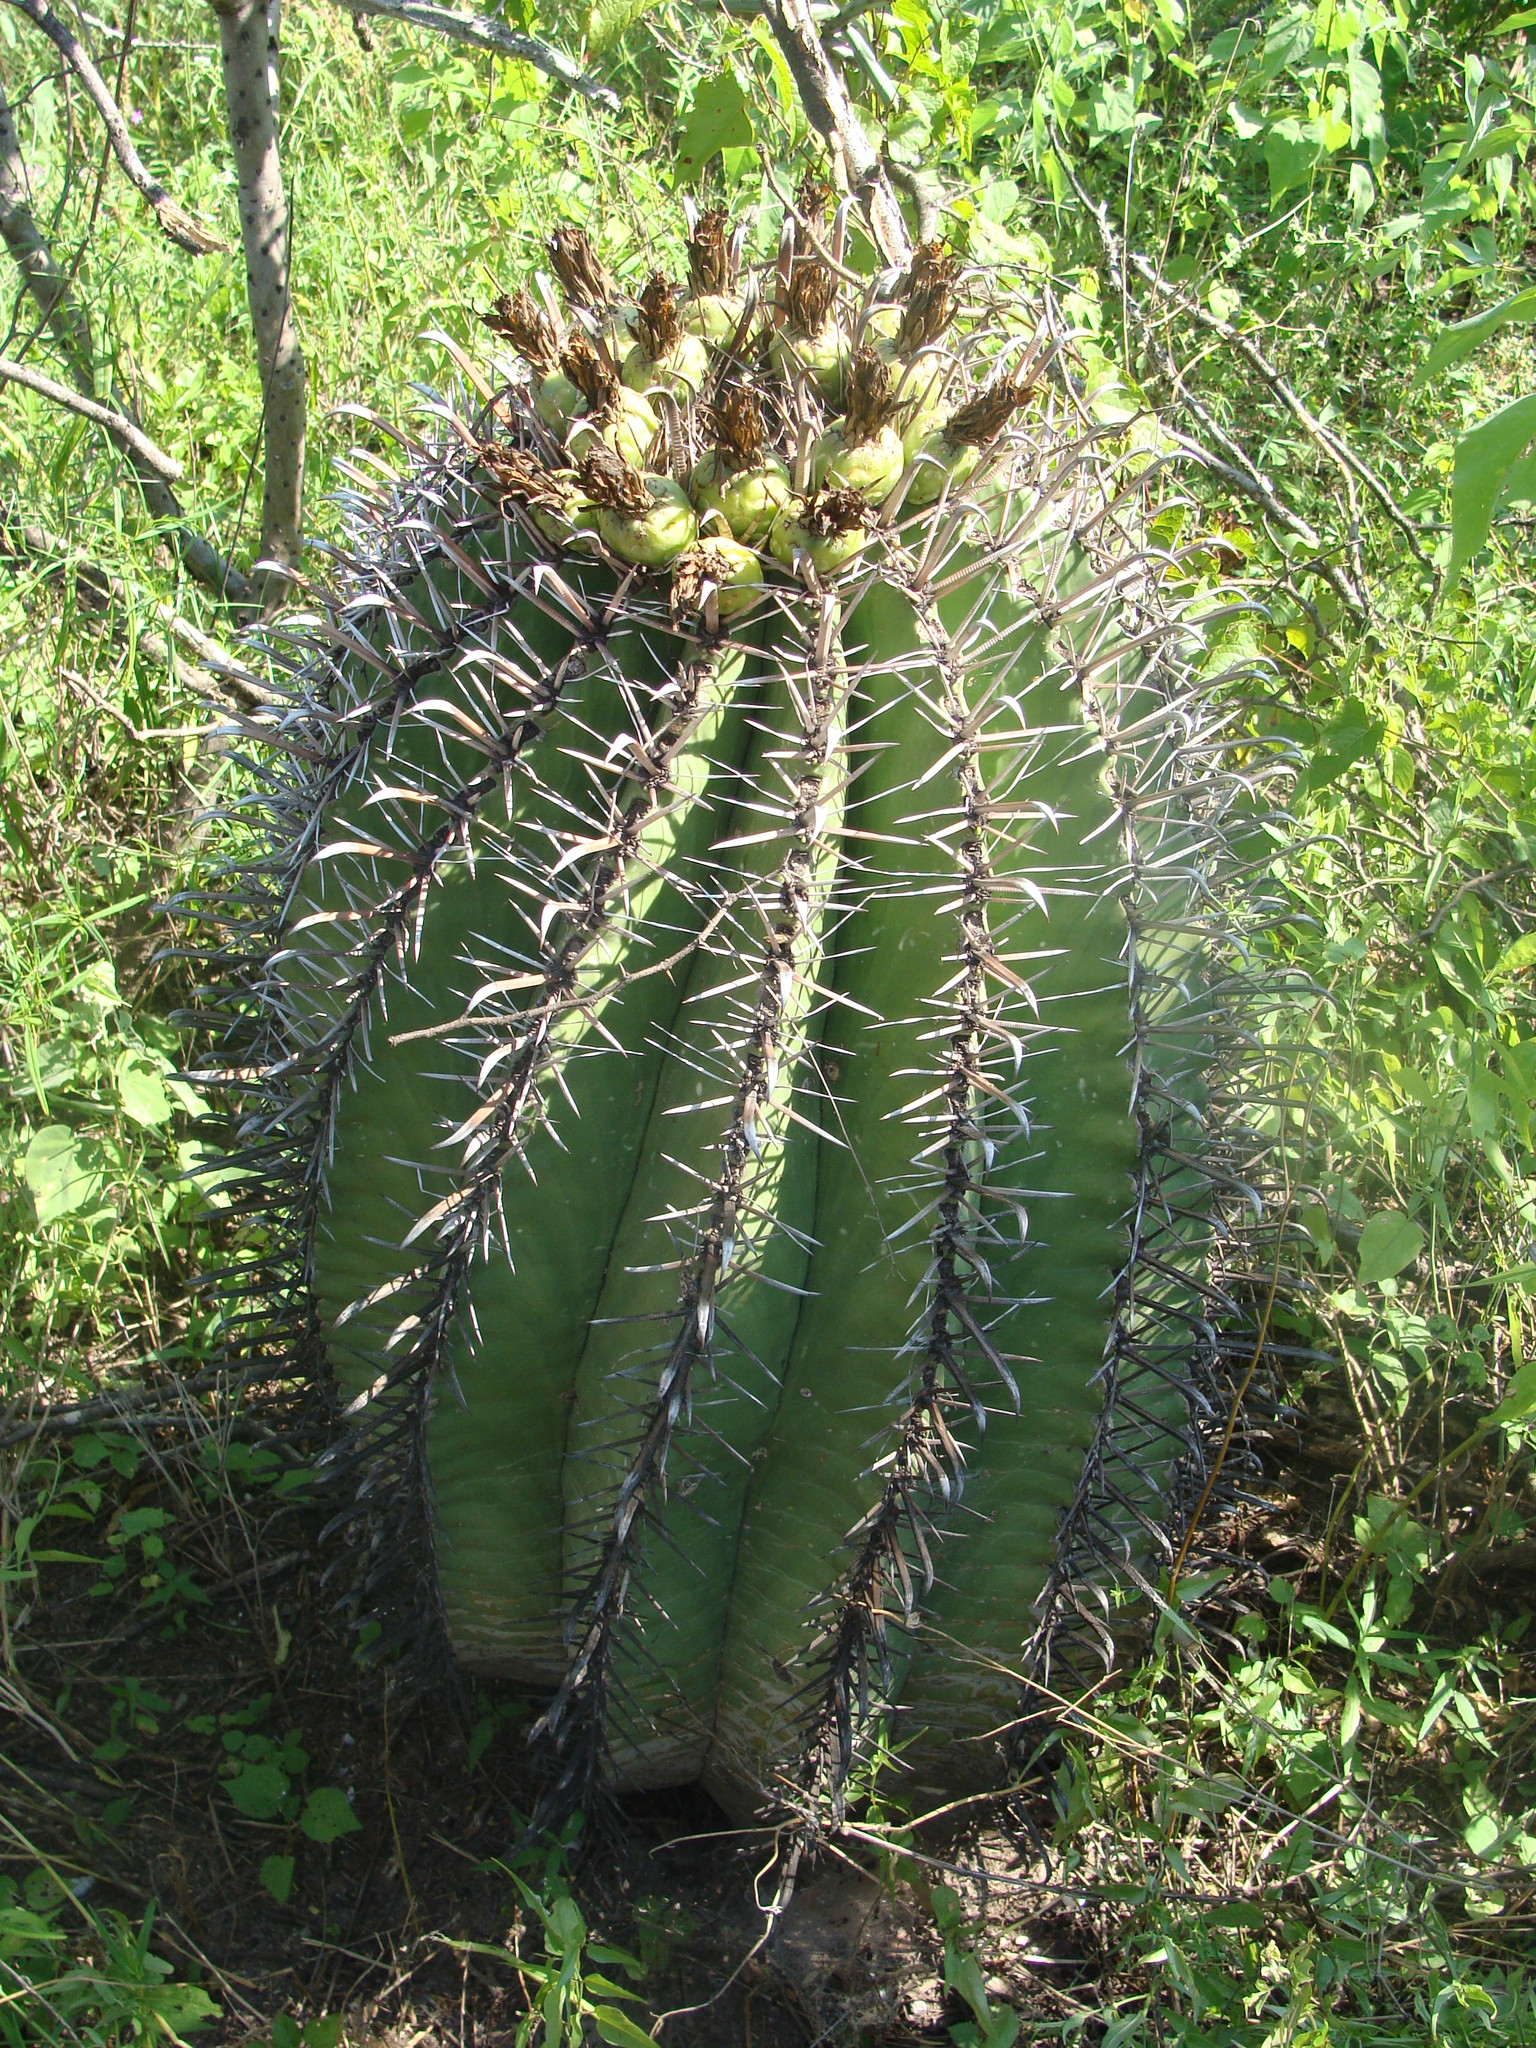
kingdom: Plantae
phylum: Tracheophyta
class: Magnoliopsida
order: Caryophyllales
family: Cactaceae
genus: Ferocactus
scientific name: Ferocactus wislizeni
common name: Candy barrel cactus
